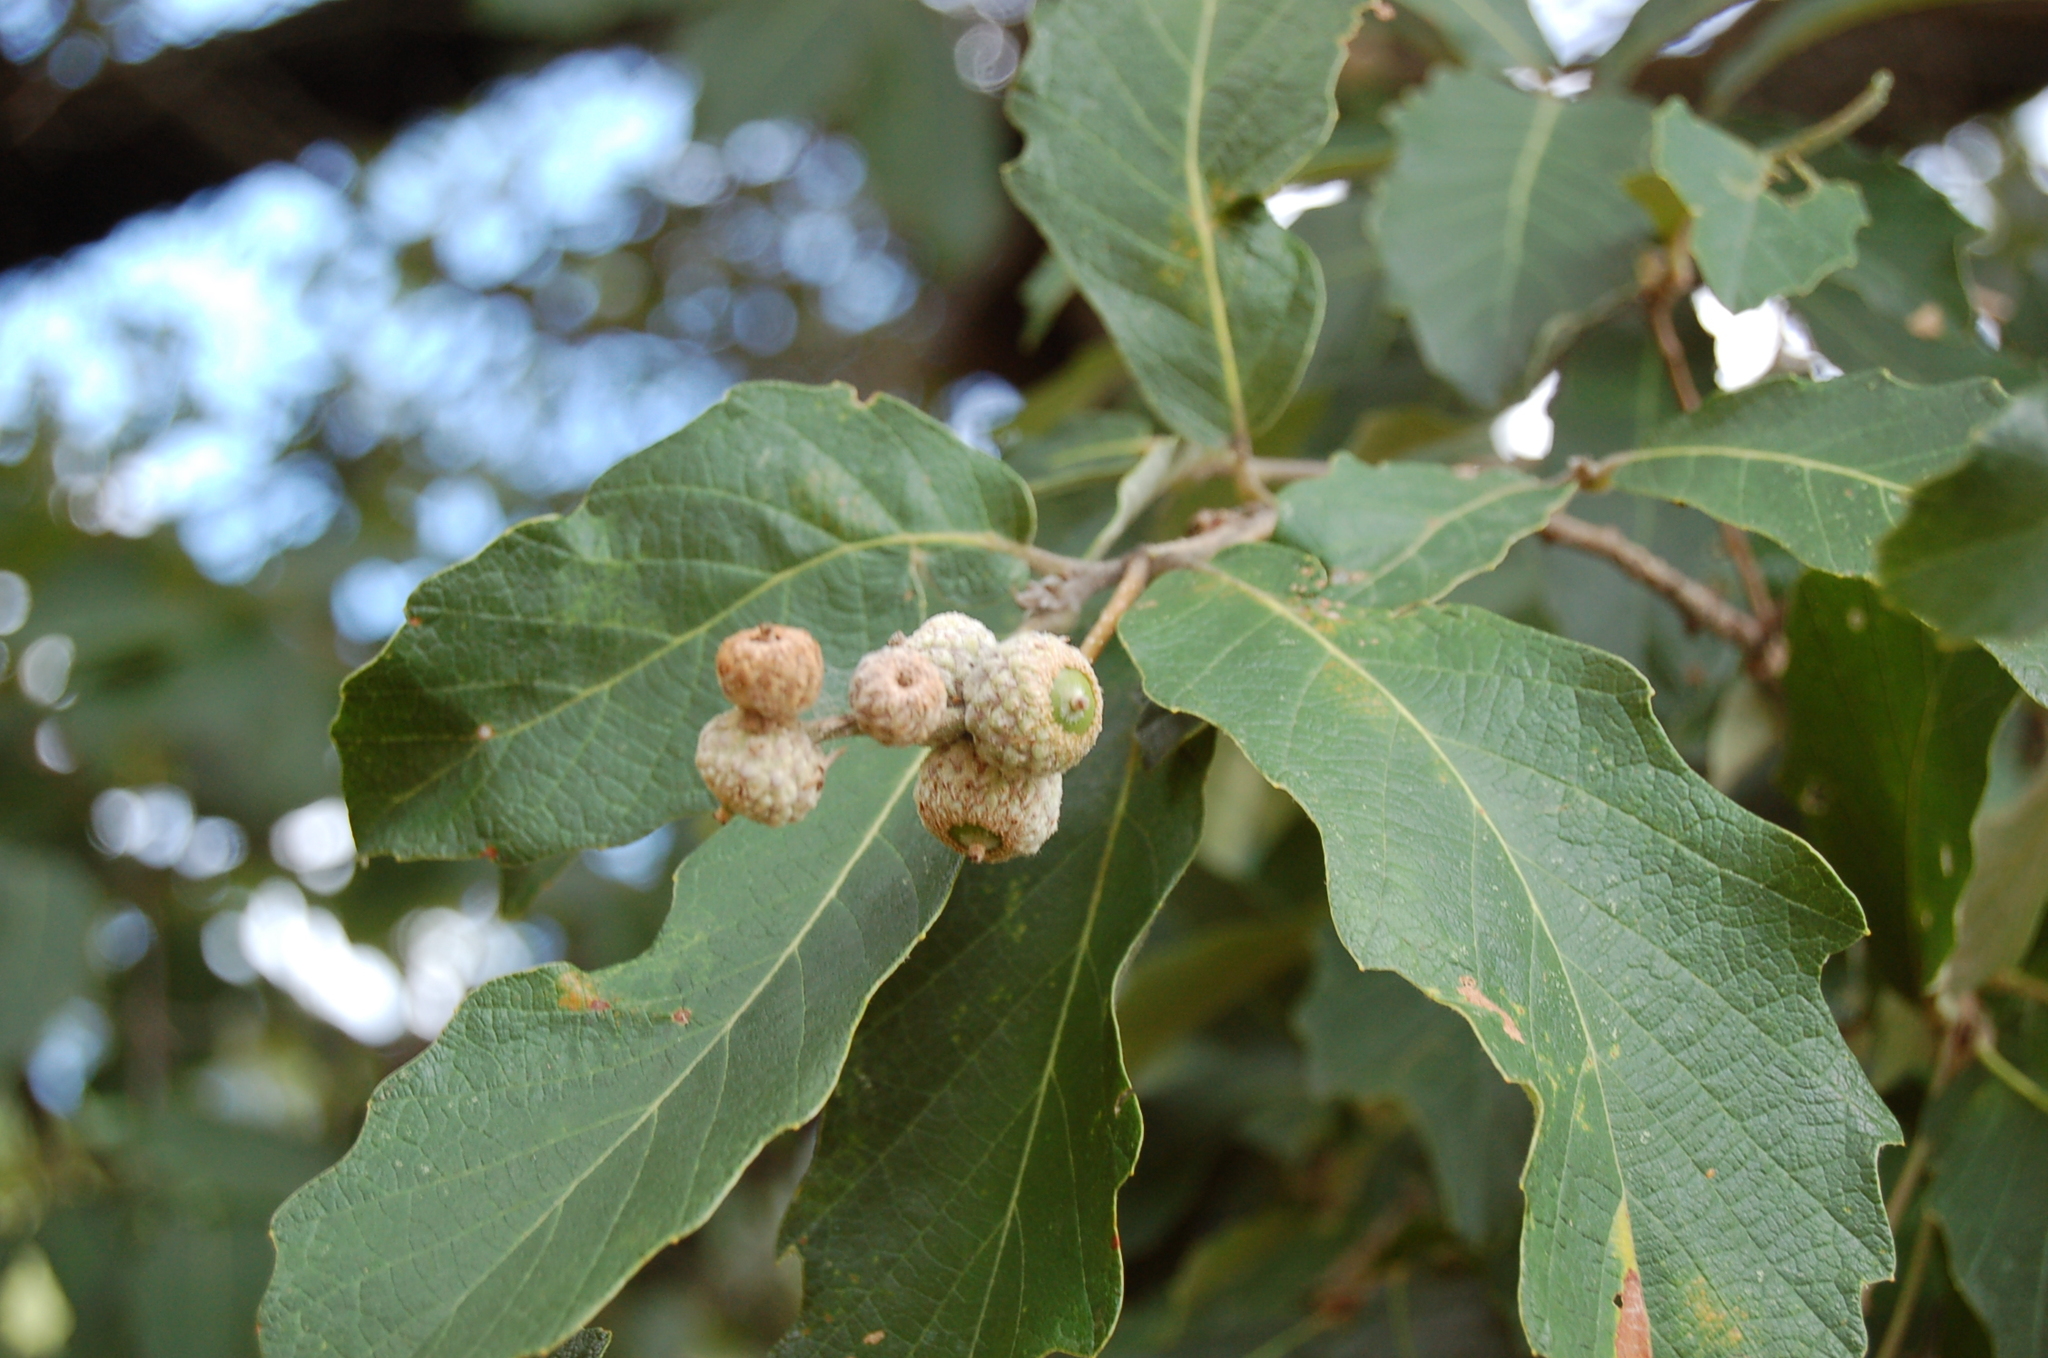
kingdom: Plantae
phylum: Tracheophyta
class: Magnoliopsida
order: Fagales
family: Fagaceae
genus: Quercus
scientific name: Quercus peduncularis
